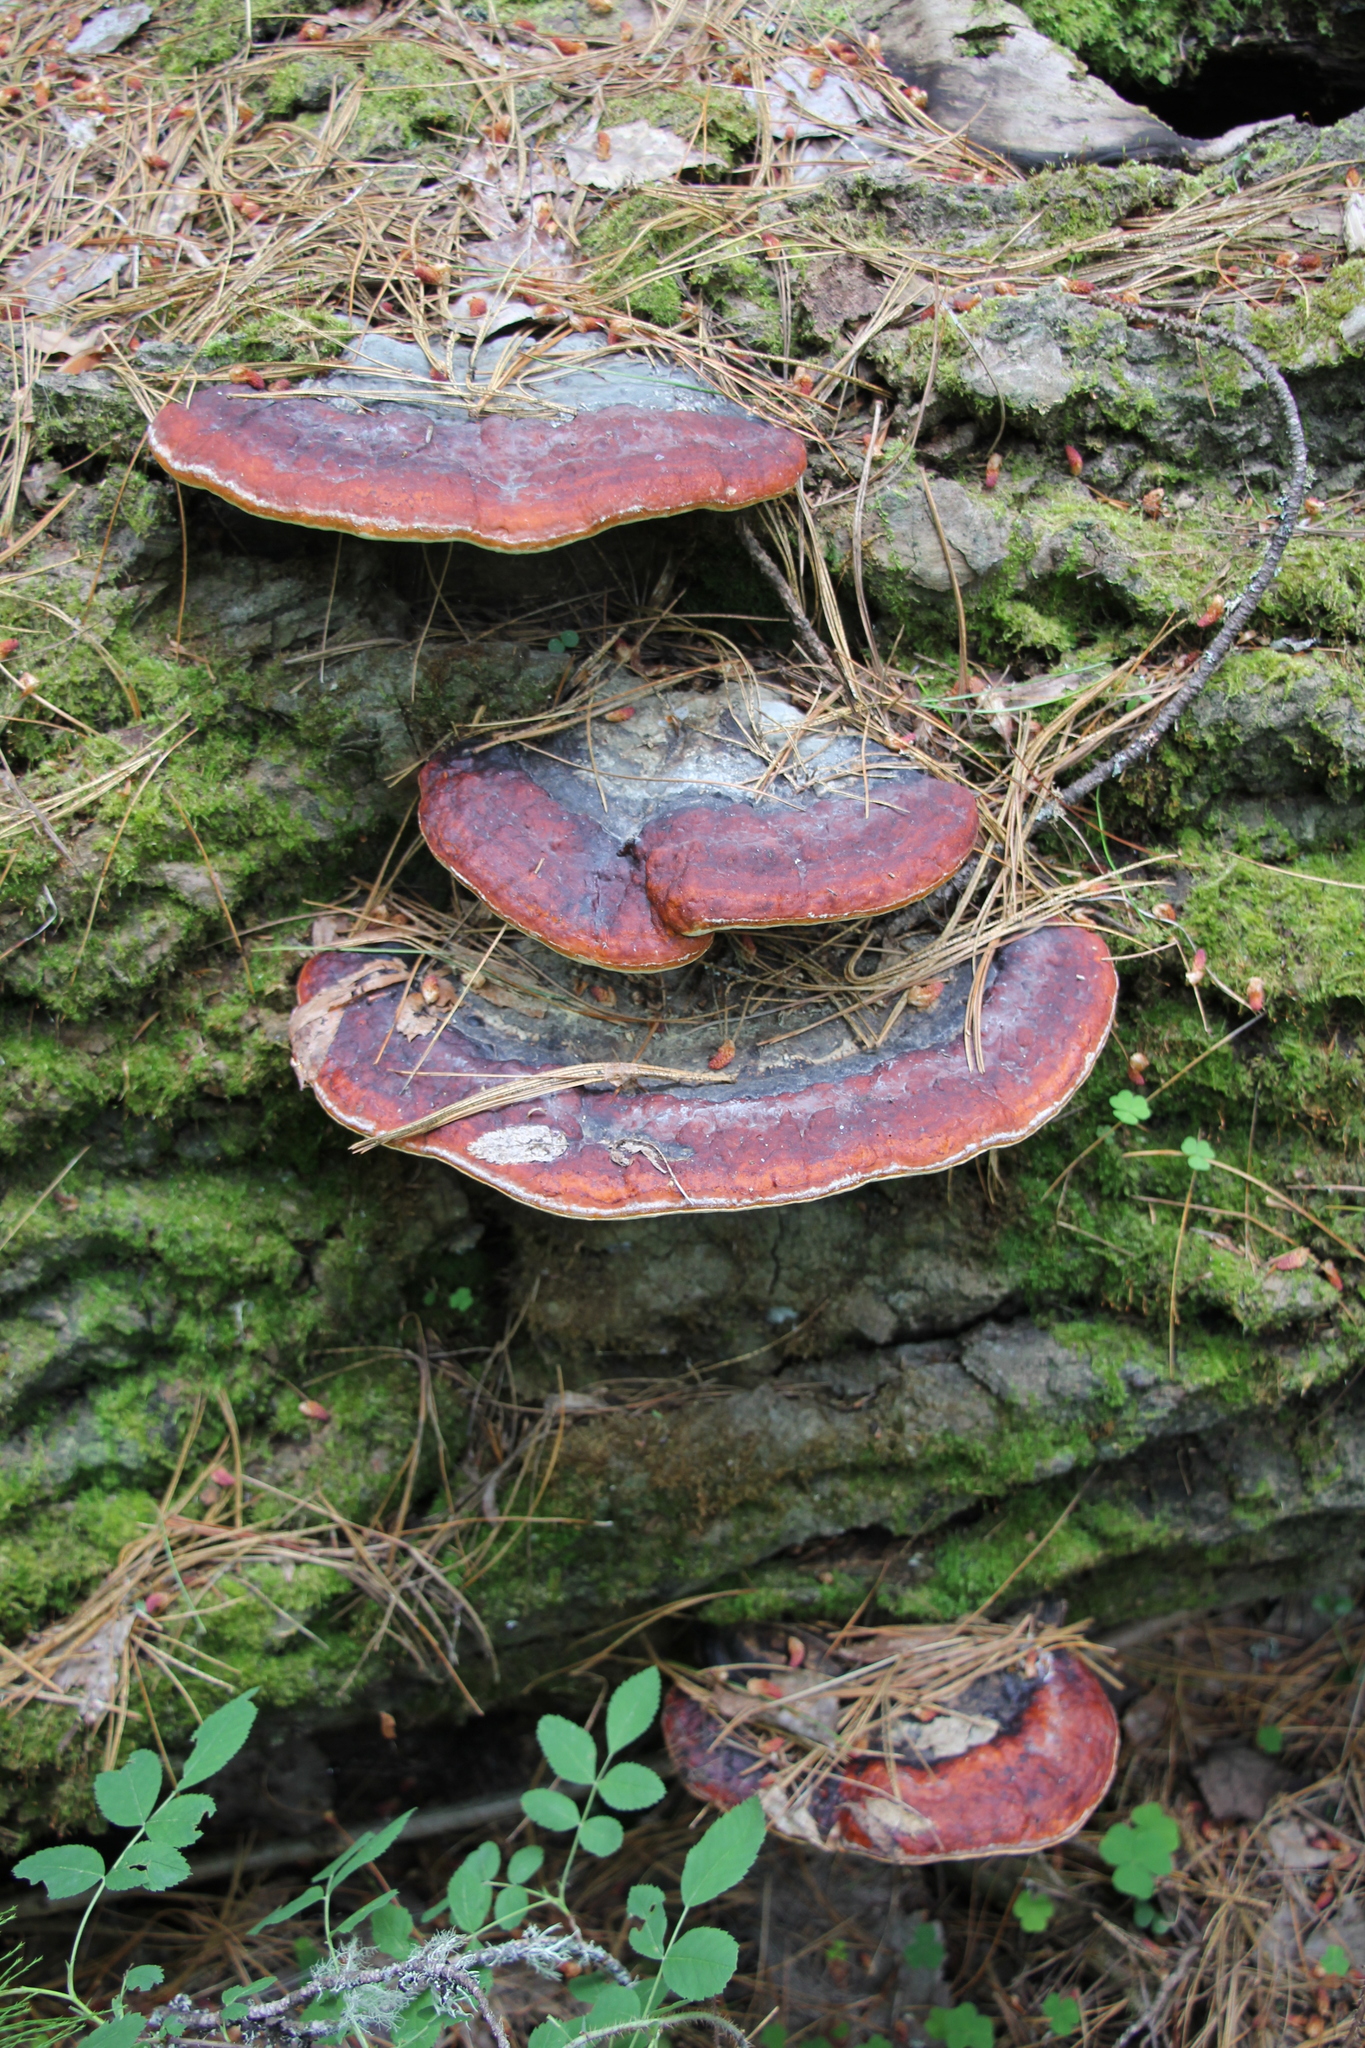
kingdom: Fungi
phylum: Basidiomycota
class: Agaricomycetes
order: Polyporales
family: Fomitopsidaceae
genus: Fomitopsis
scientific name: Fomitopsis pinicola
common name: Red-belted bracket
